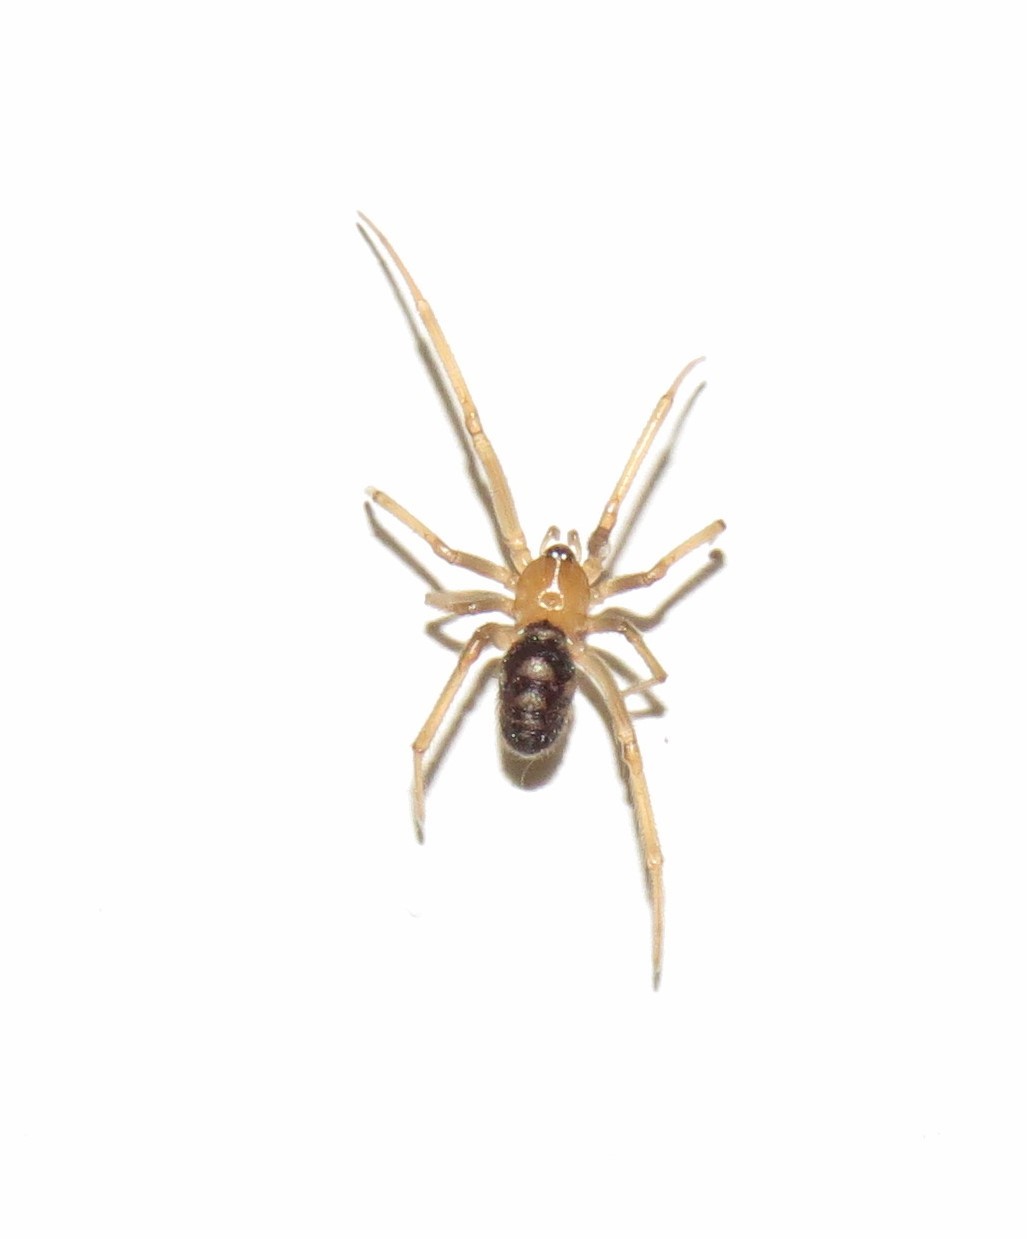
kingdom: Animalia
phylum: Arthropoda
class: Arachnida
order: Araneae
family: Theridiidae
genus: Steatoda
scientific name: Steatoda grossa
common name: False black widow
